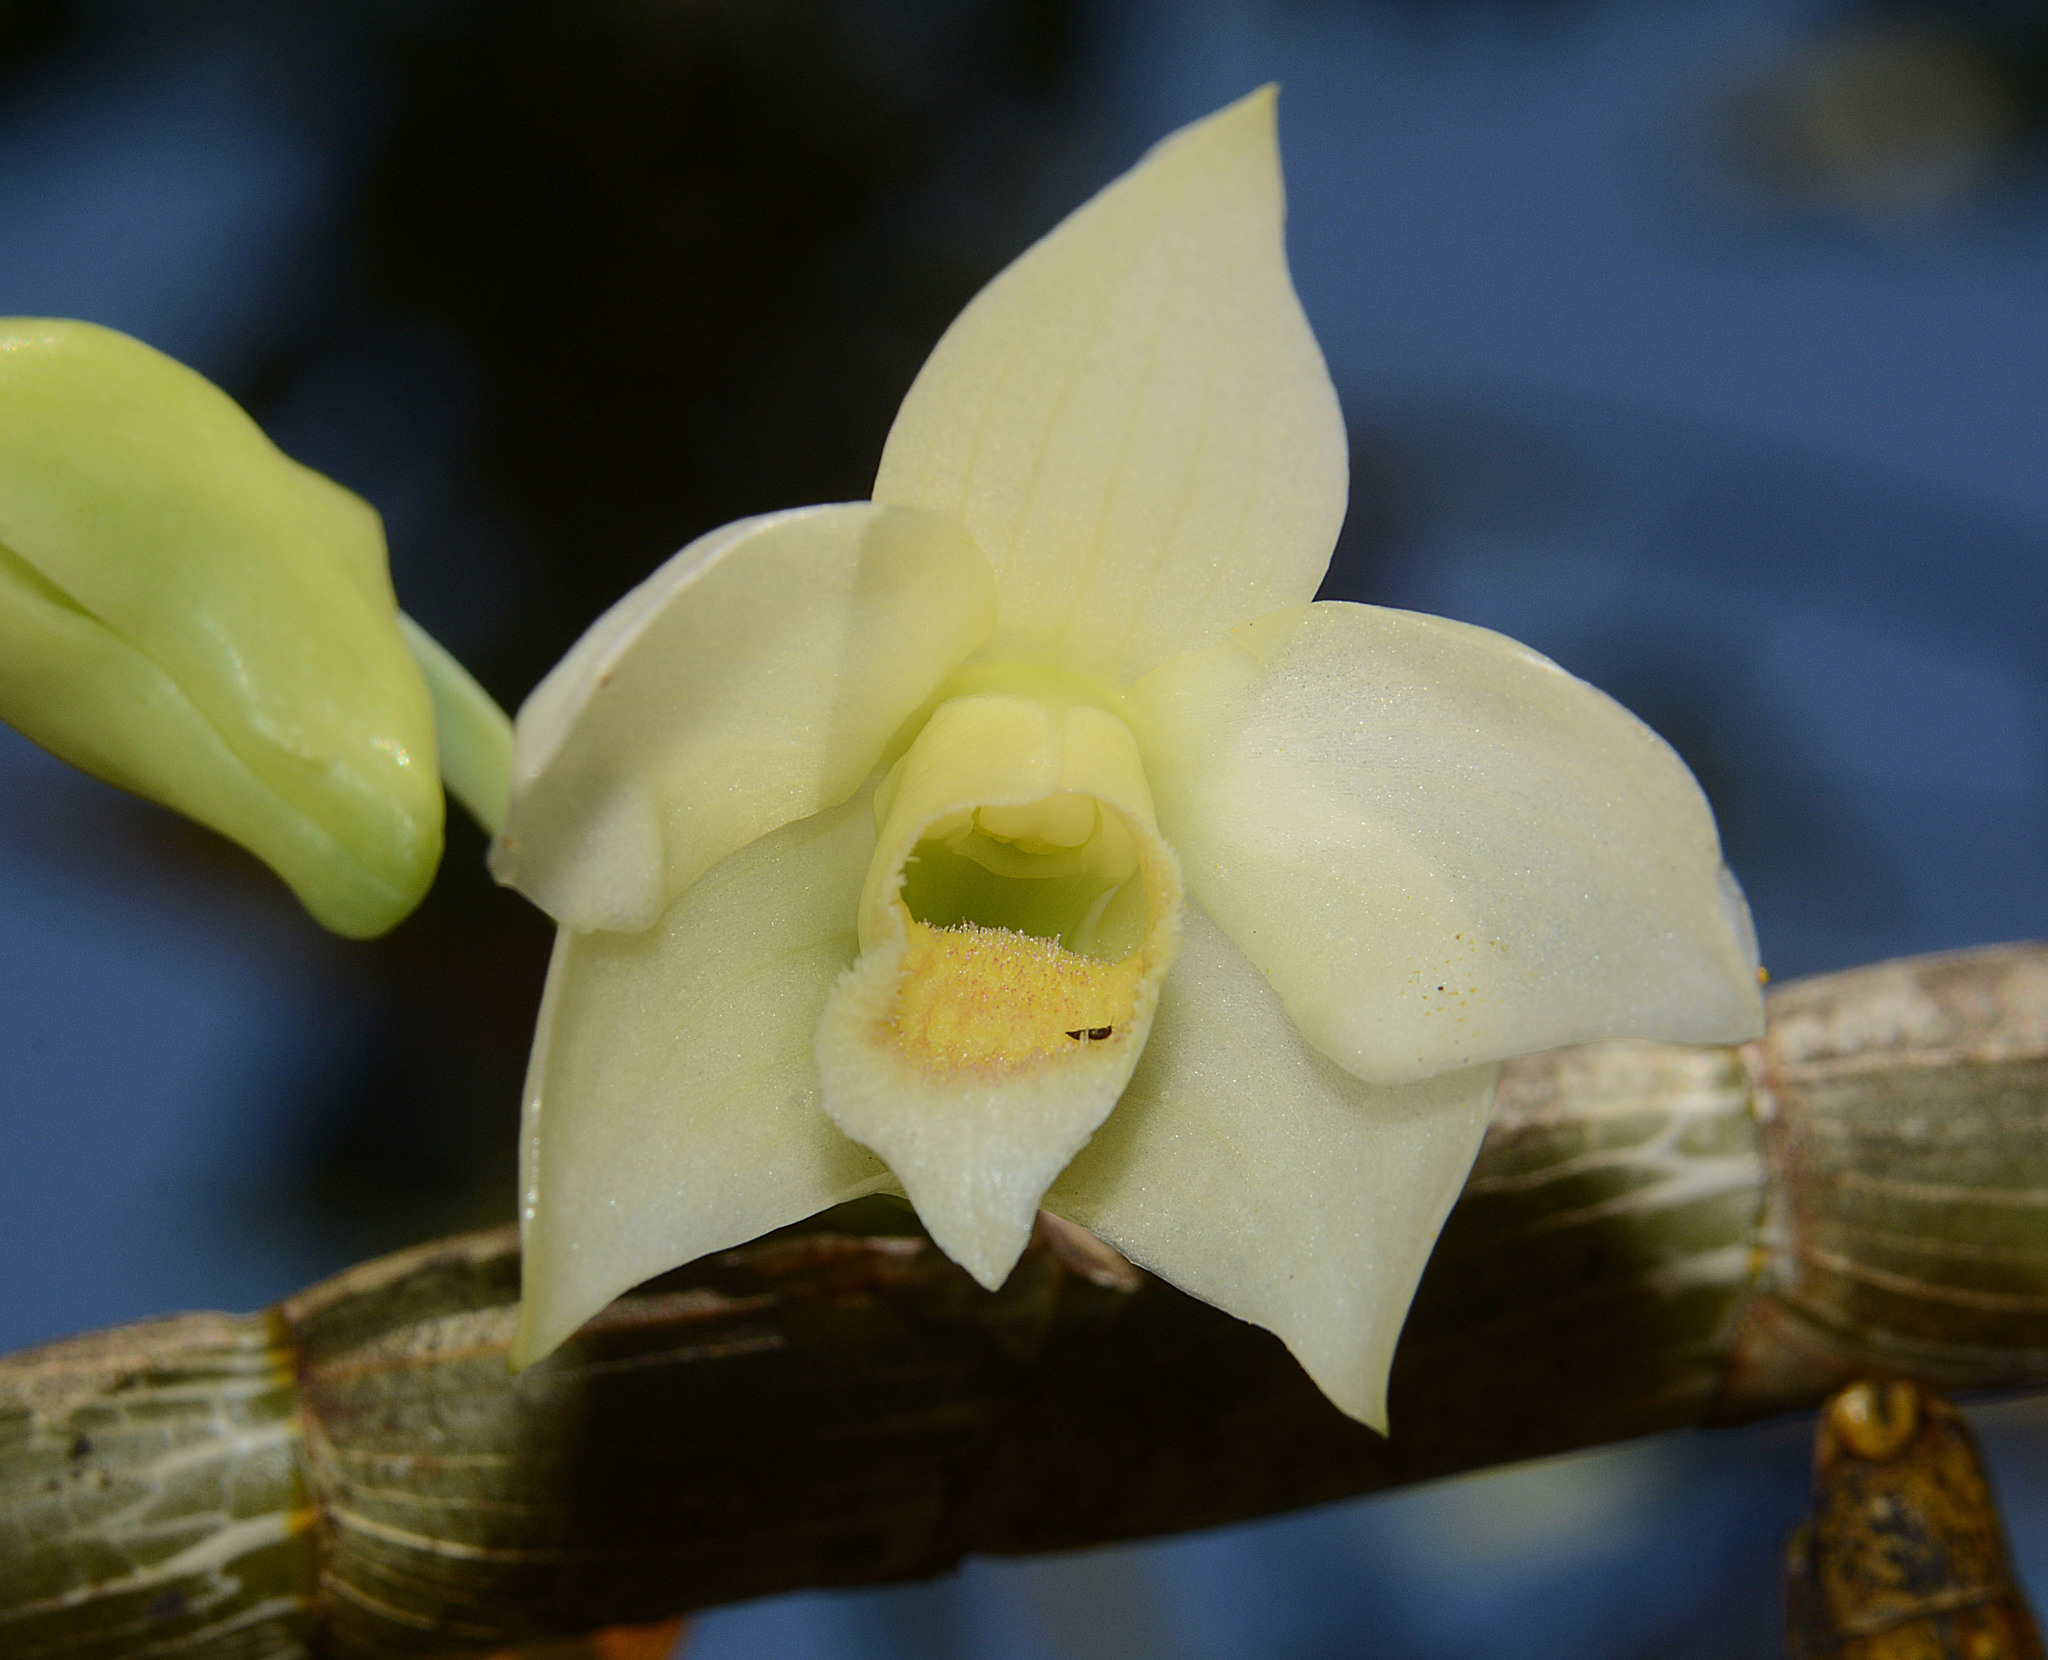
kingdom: Plantae
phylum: Tracheophyta
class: Liliopsida
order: Asparagales
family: Orchidaceae
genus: Dendrobium
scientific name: Dendrobium aqueum
